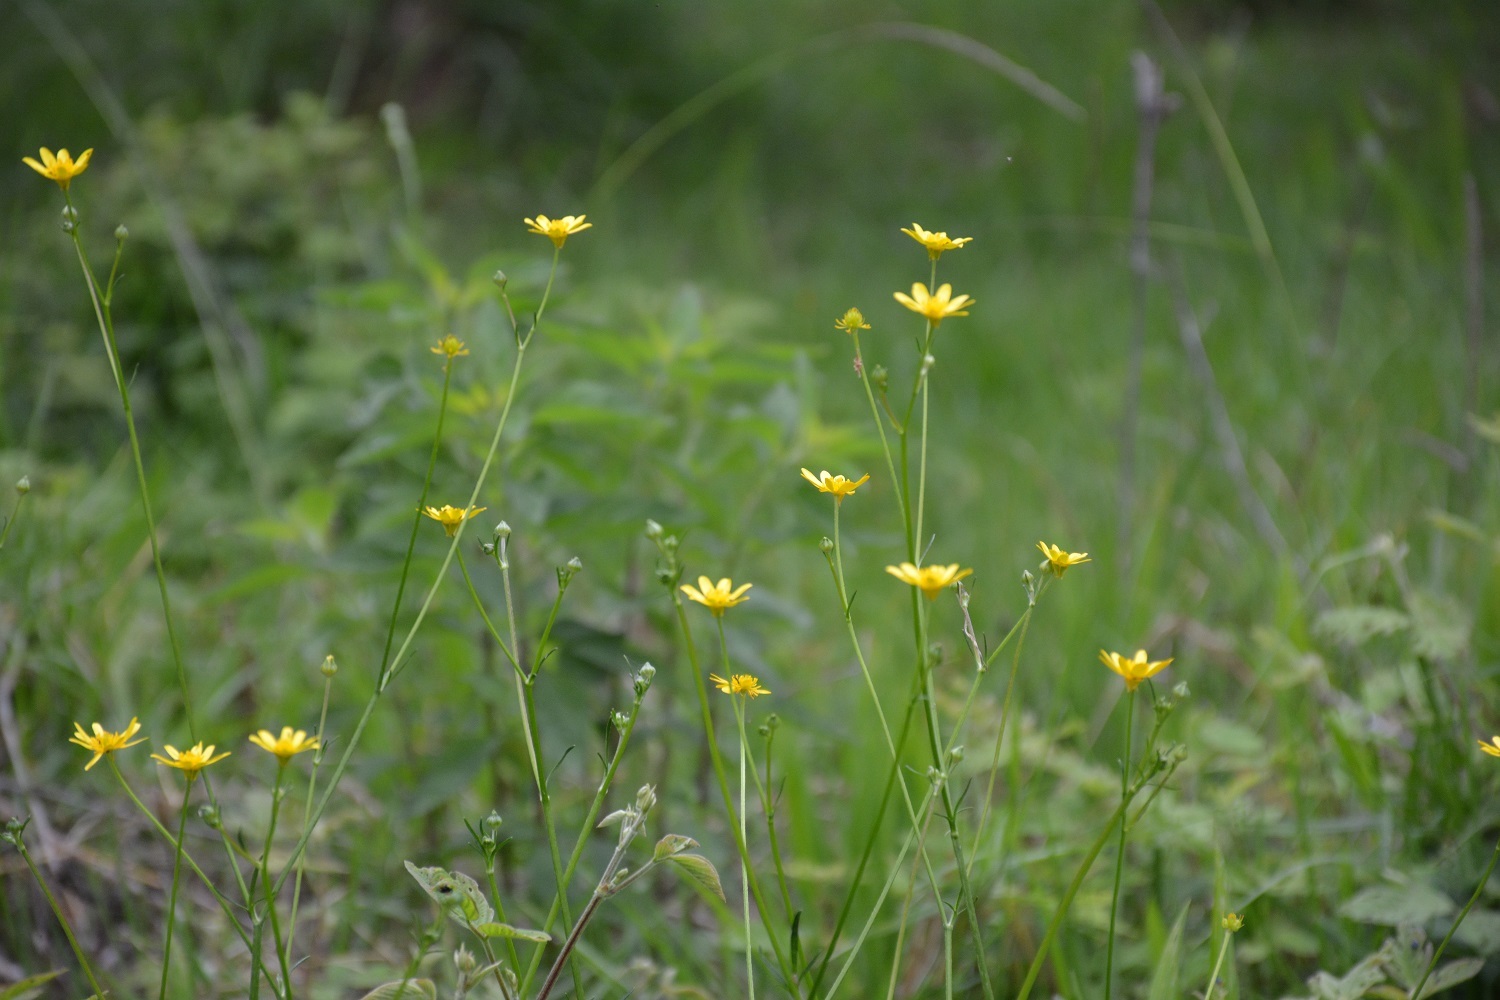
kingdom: Plantae
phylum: Tracheophyta
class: Magnoliopsida
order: Ranunculales
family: Ranunculaceae
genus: Ranunculus
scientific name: Ranunculus petiolaris
